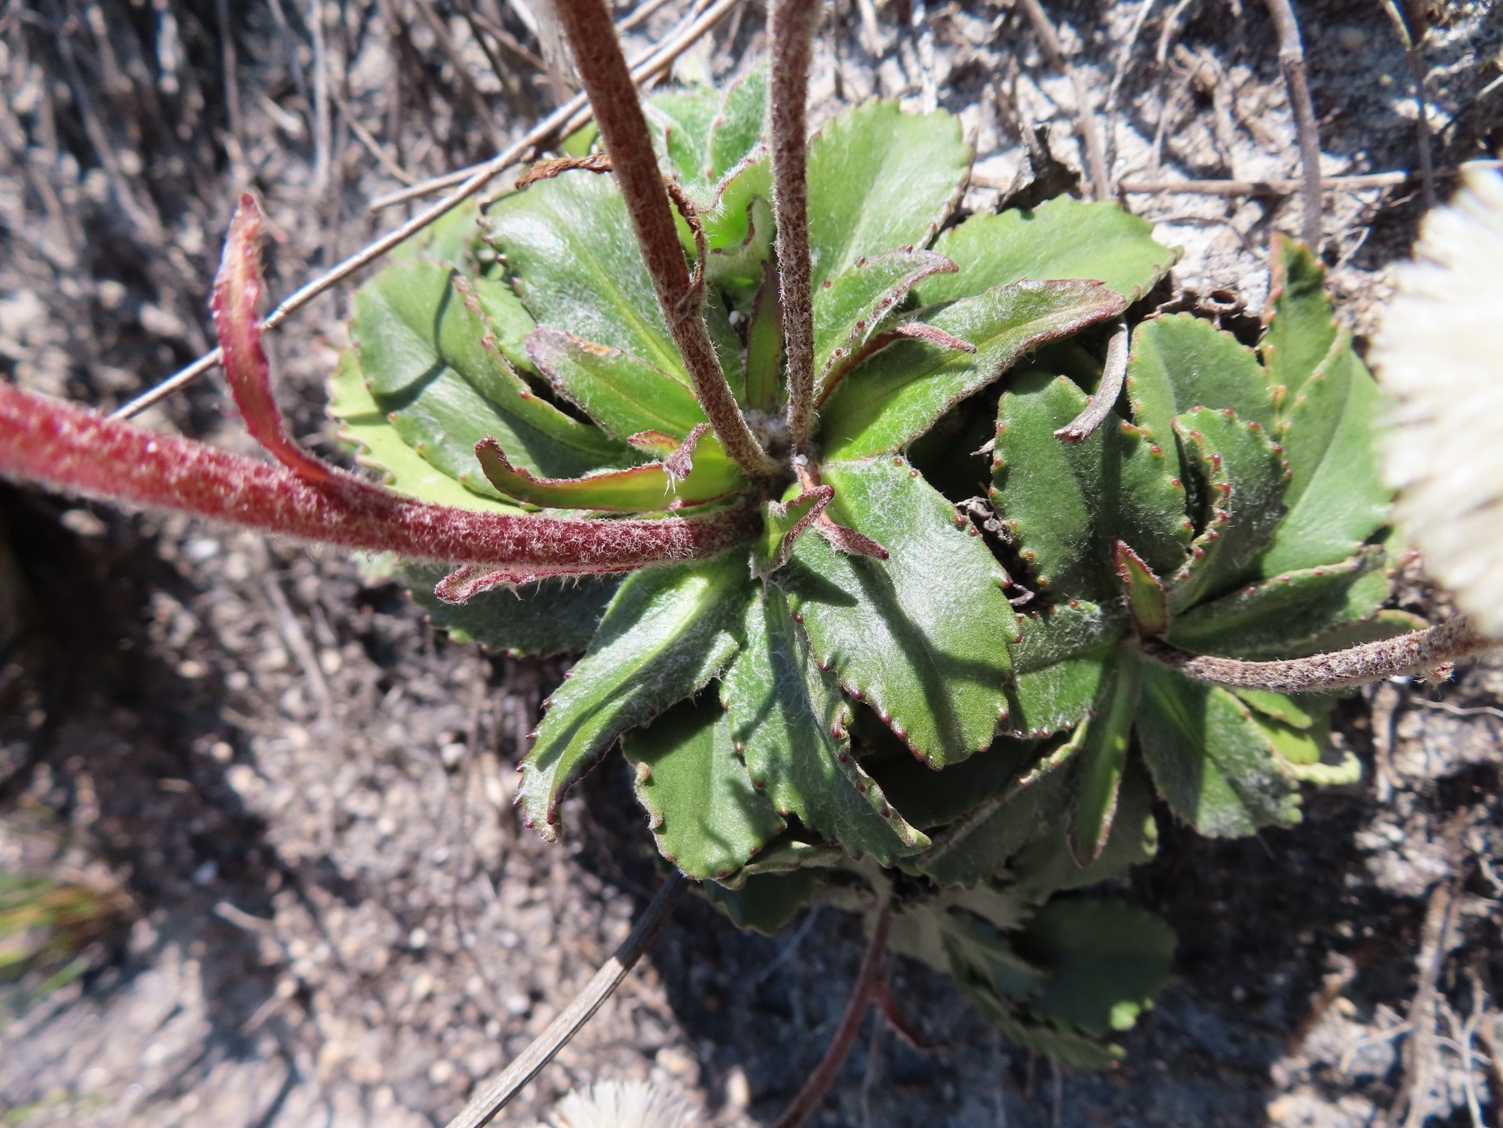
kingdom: Plantae
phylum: Tracheophyta
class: Magnoliopsida
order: Asterales
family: Asteraceae
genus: Zyrphelis
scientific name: Zyrphelis crenata
